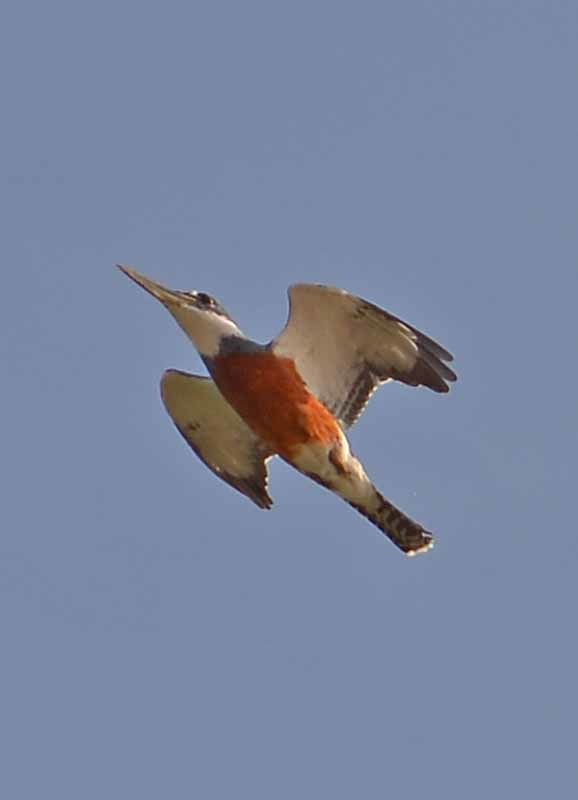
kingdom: Animalia
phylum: Chordata
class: Aves
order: Coraciiformes
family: Alcedinidae
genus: Megaceryle
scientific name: Megaceryle torquata
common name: Ringed kingfisher
